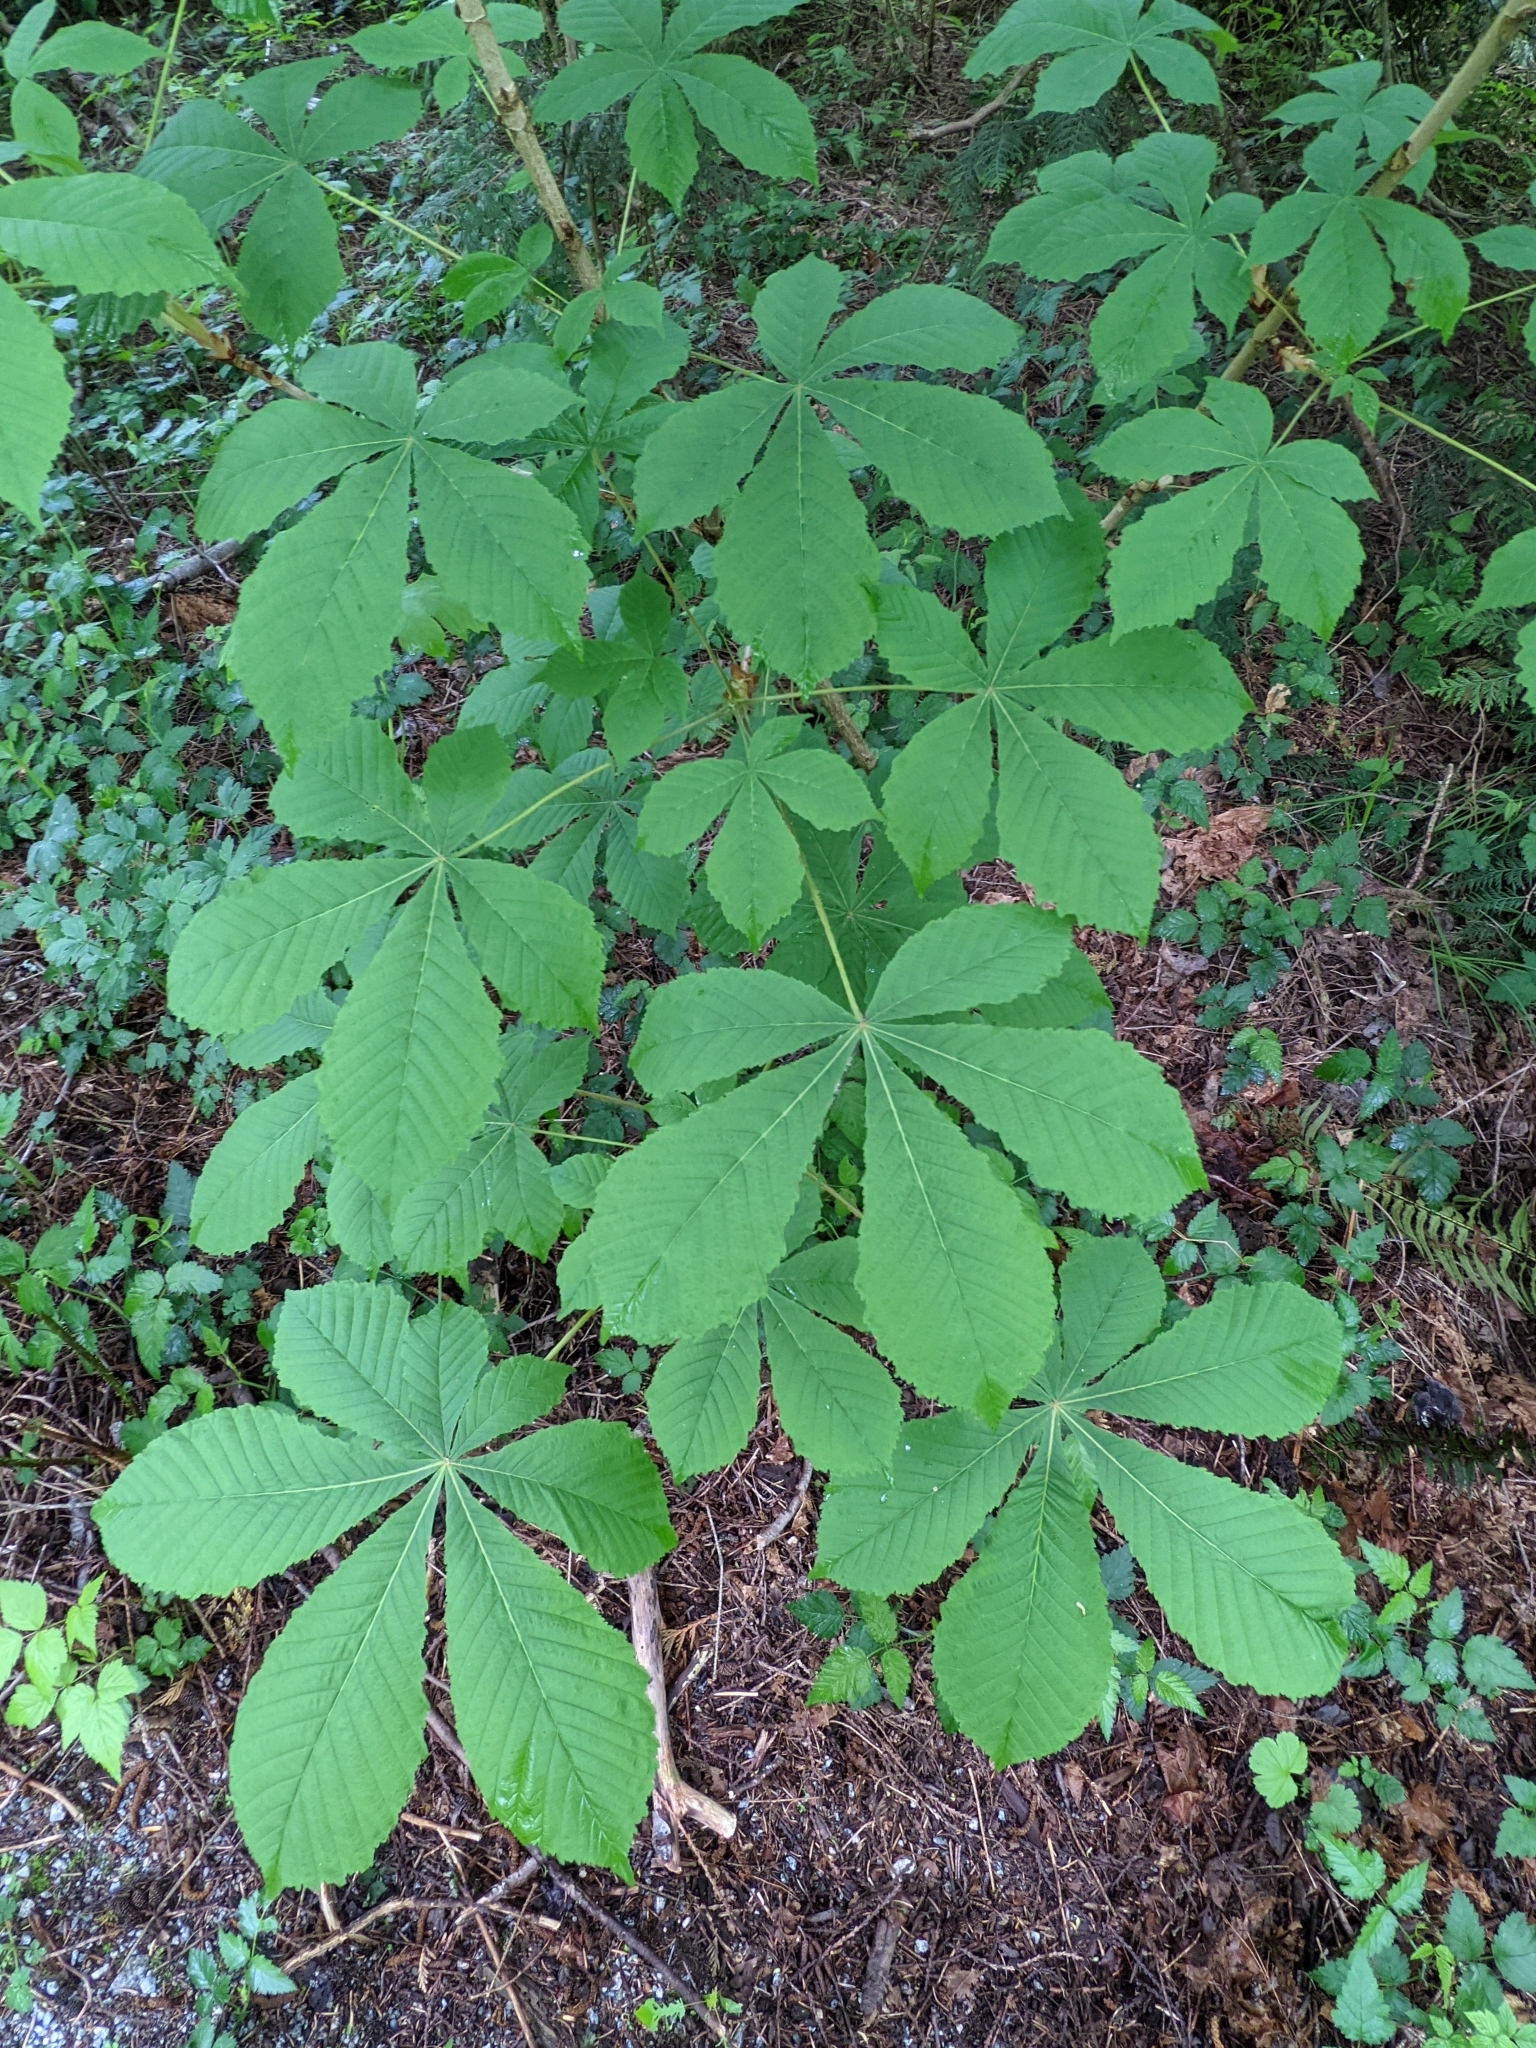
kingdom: Plantae
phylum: Tracheophyta
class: Magnoliopsida
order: Sapindales
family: Sapindaceae
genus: Aesculus
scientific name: Aesculus hippocastanum
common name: Horse-chestnut
